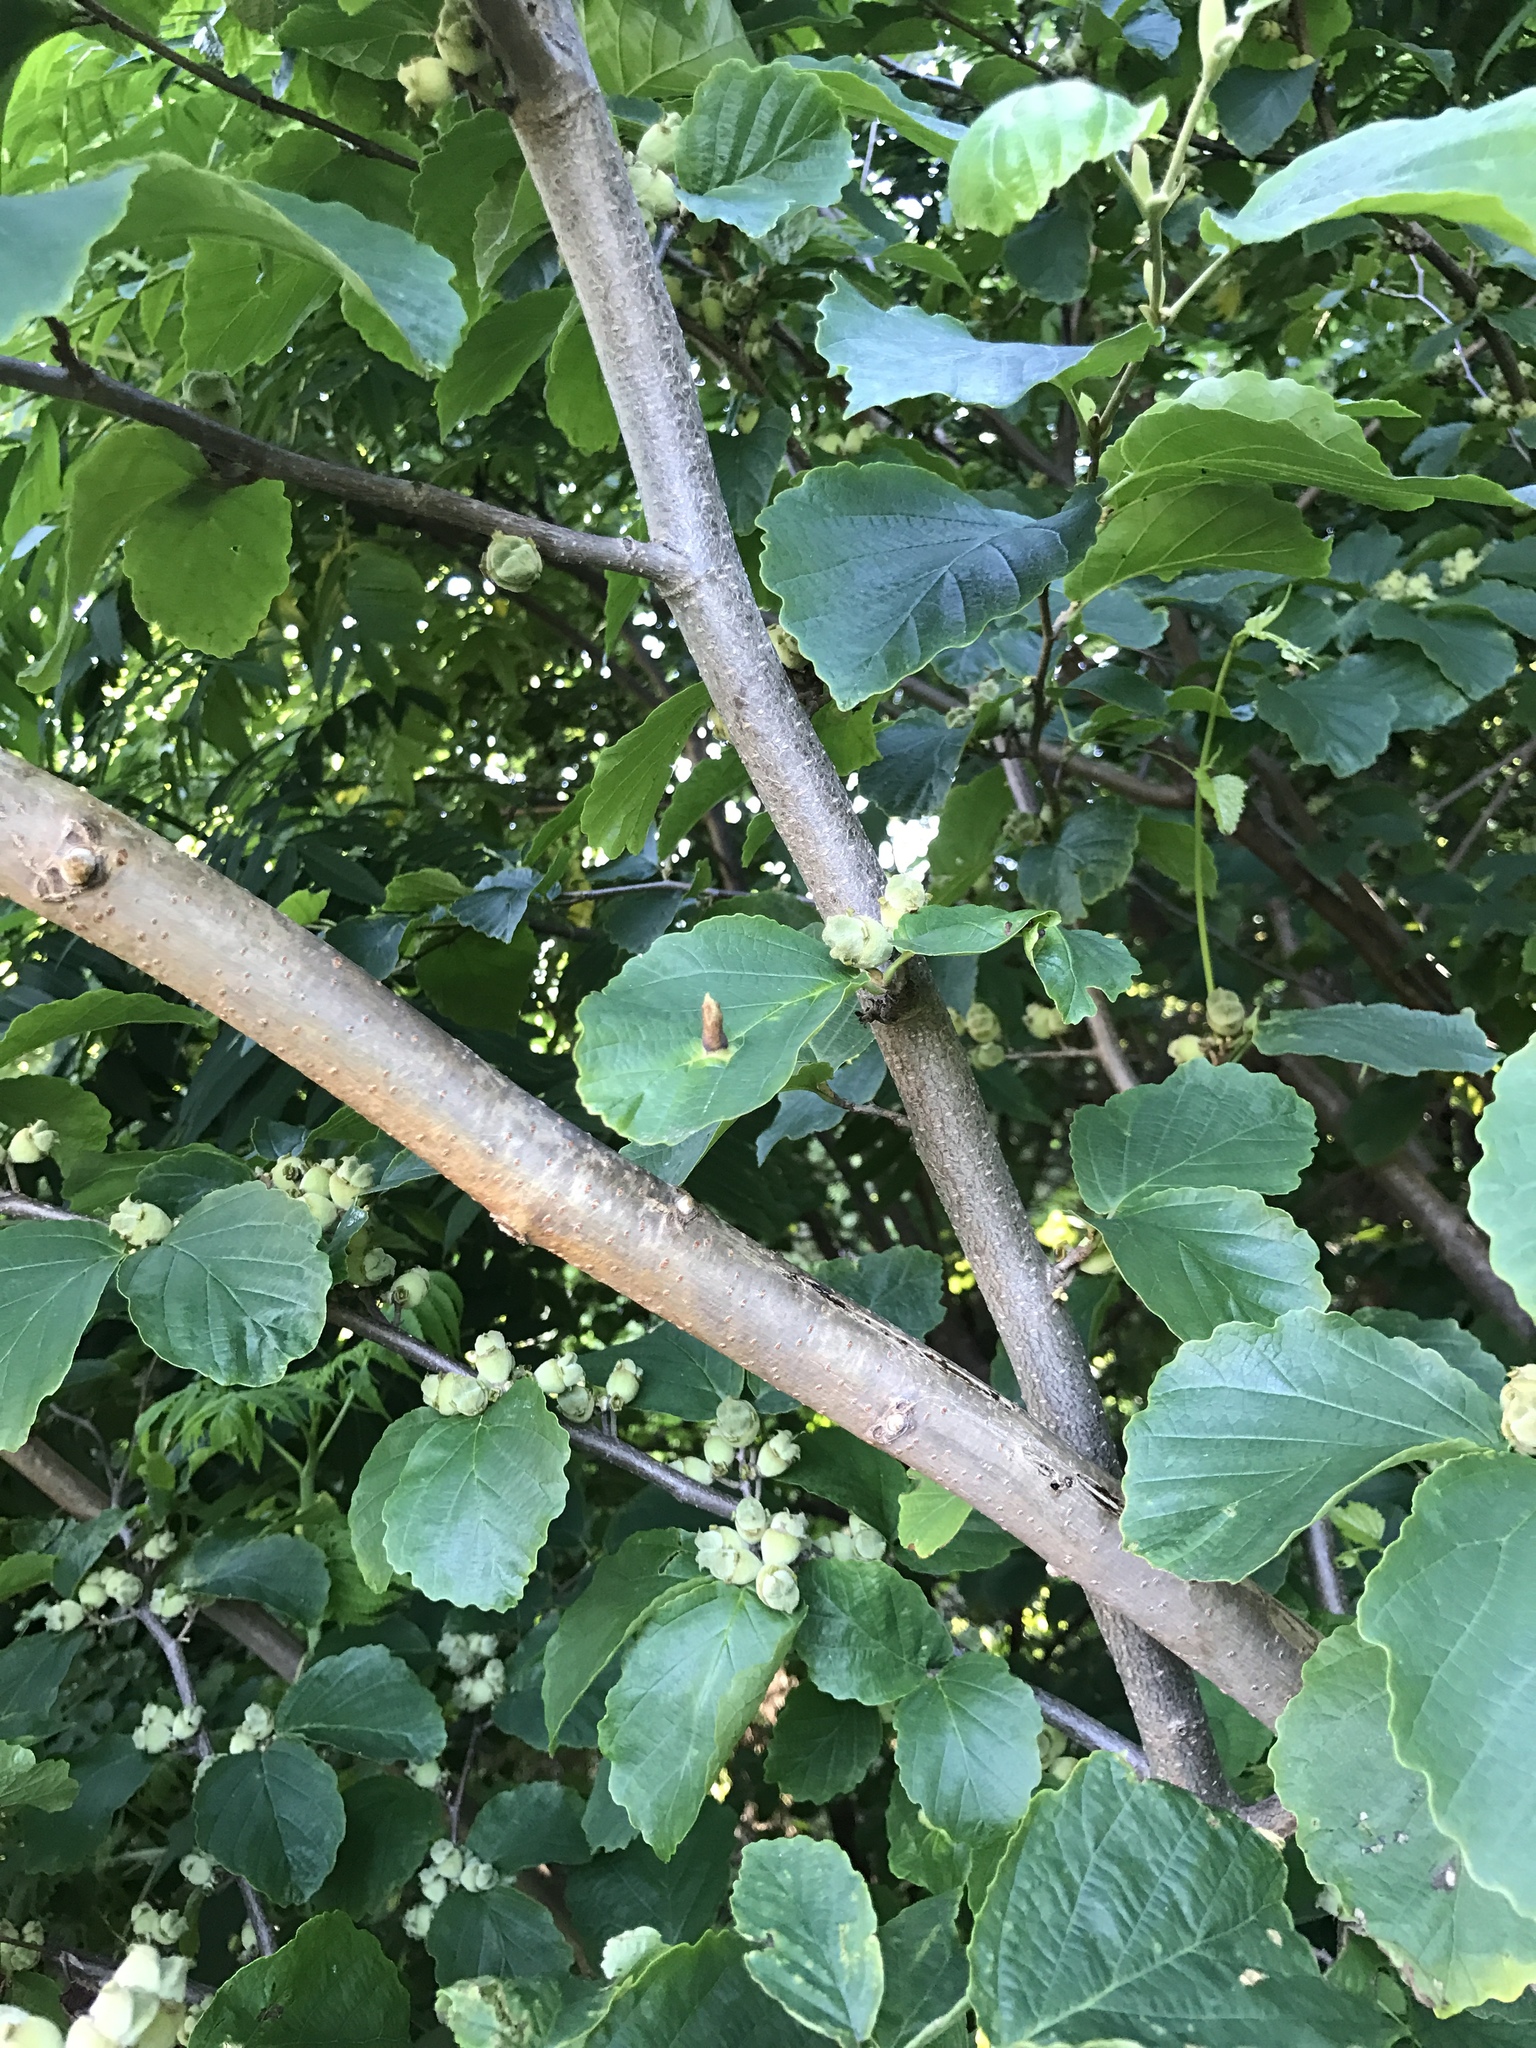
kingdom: Plantae
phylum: Tracheophyta
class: Magnoliopsida
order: Saxifragales
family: Hamamelidaceae
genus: Hamamelis
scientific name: Hamamelis virginiana
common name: Witch-hazel
